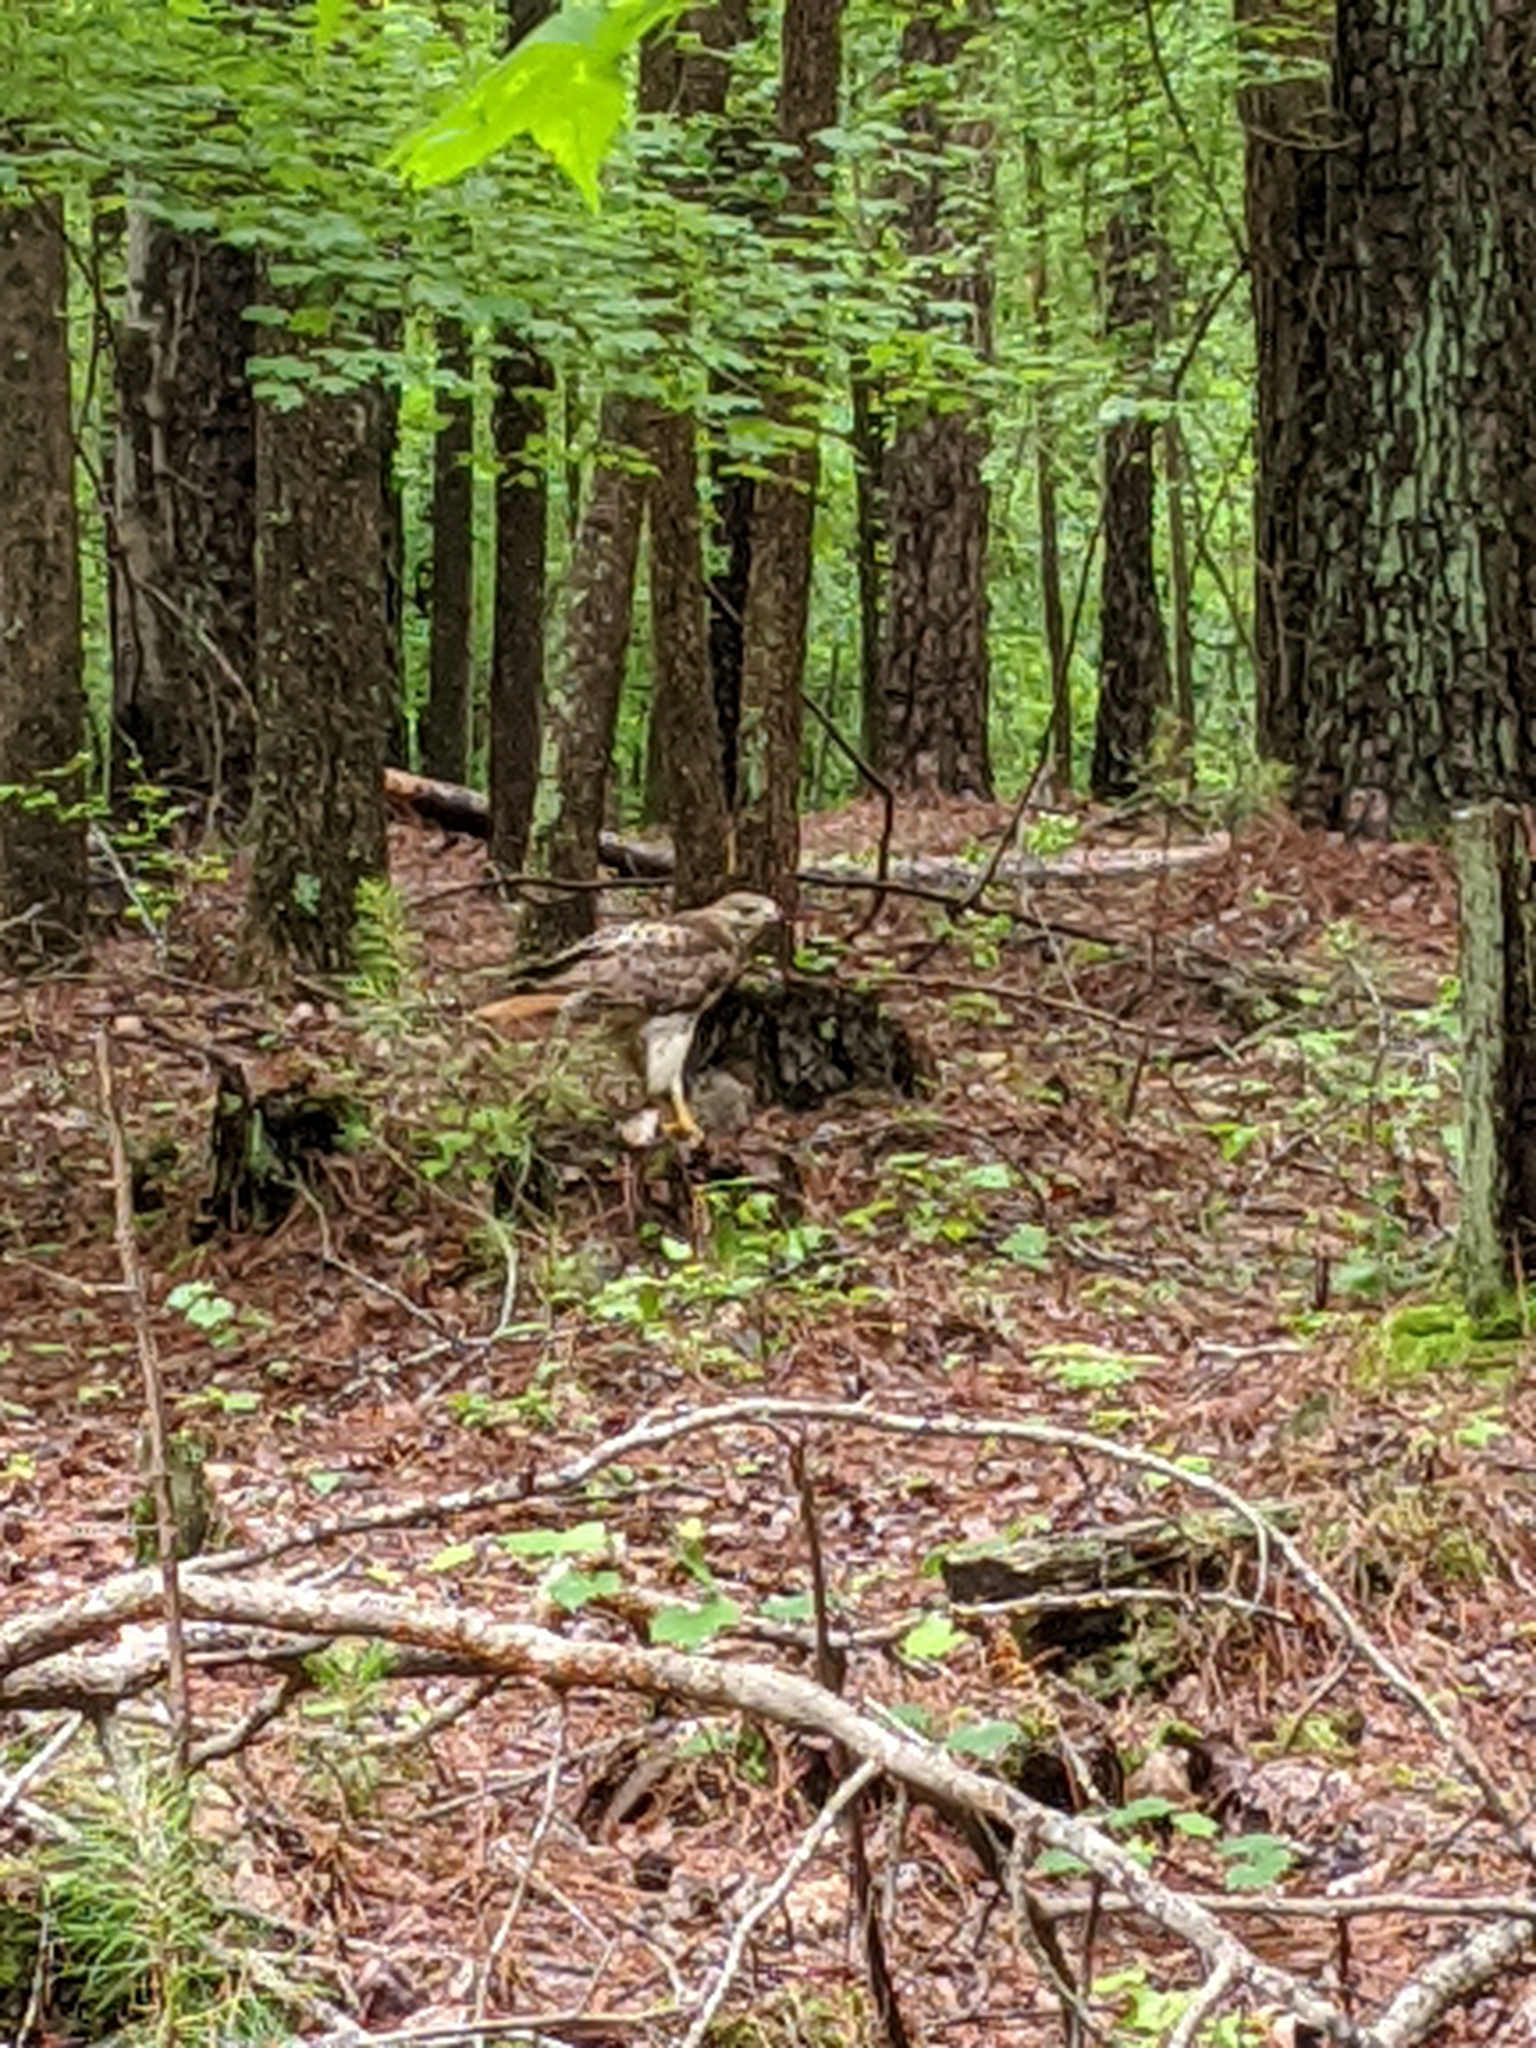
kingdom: Animalia
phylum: Chordata
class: Aves
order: Accipitriformes
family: Accipitridae
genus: Buteo
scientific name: Buteo jamaicensis
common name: Red-tailed hawk
